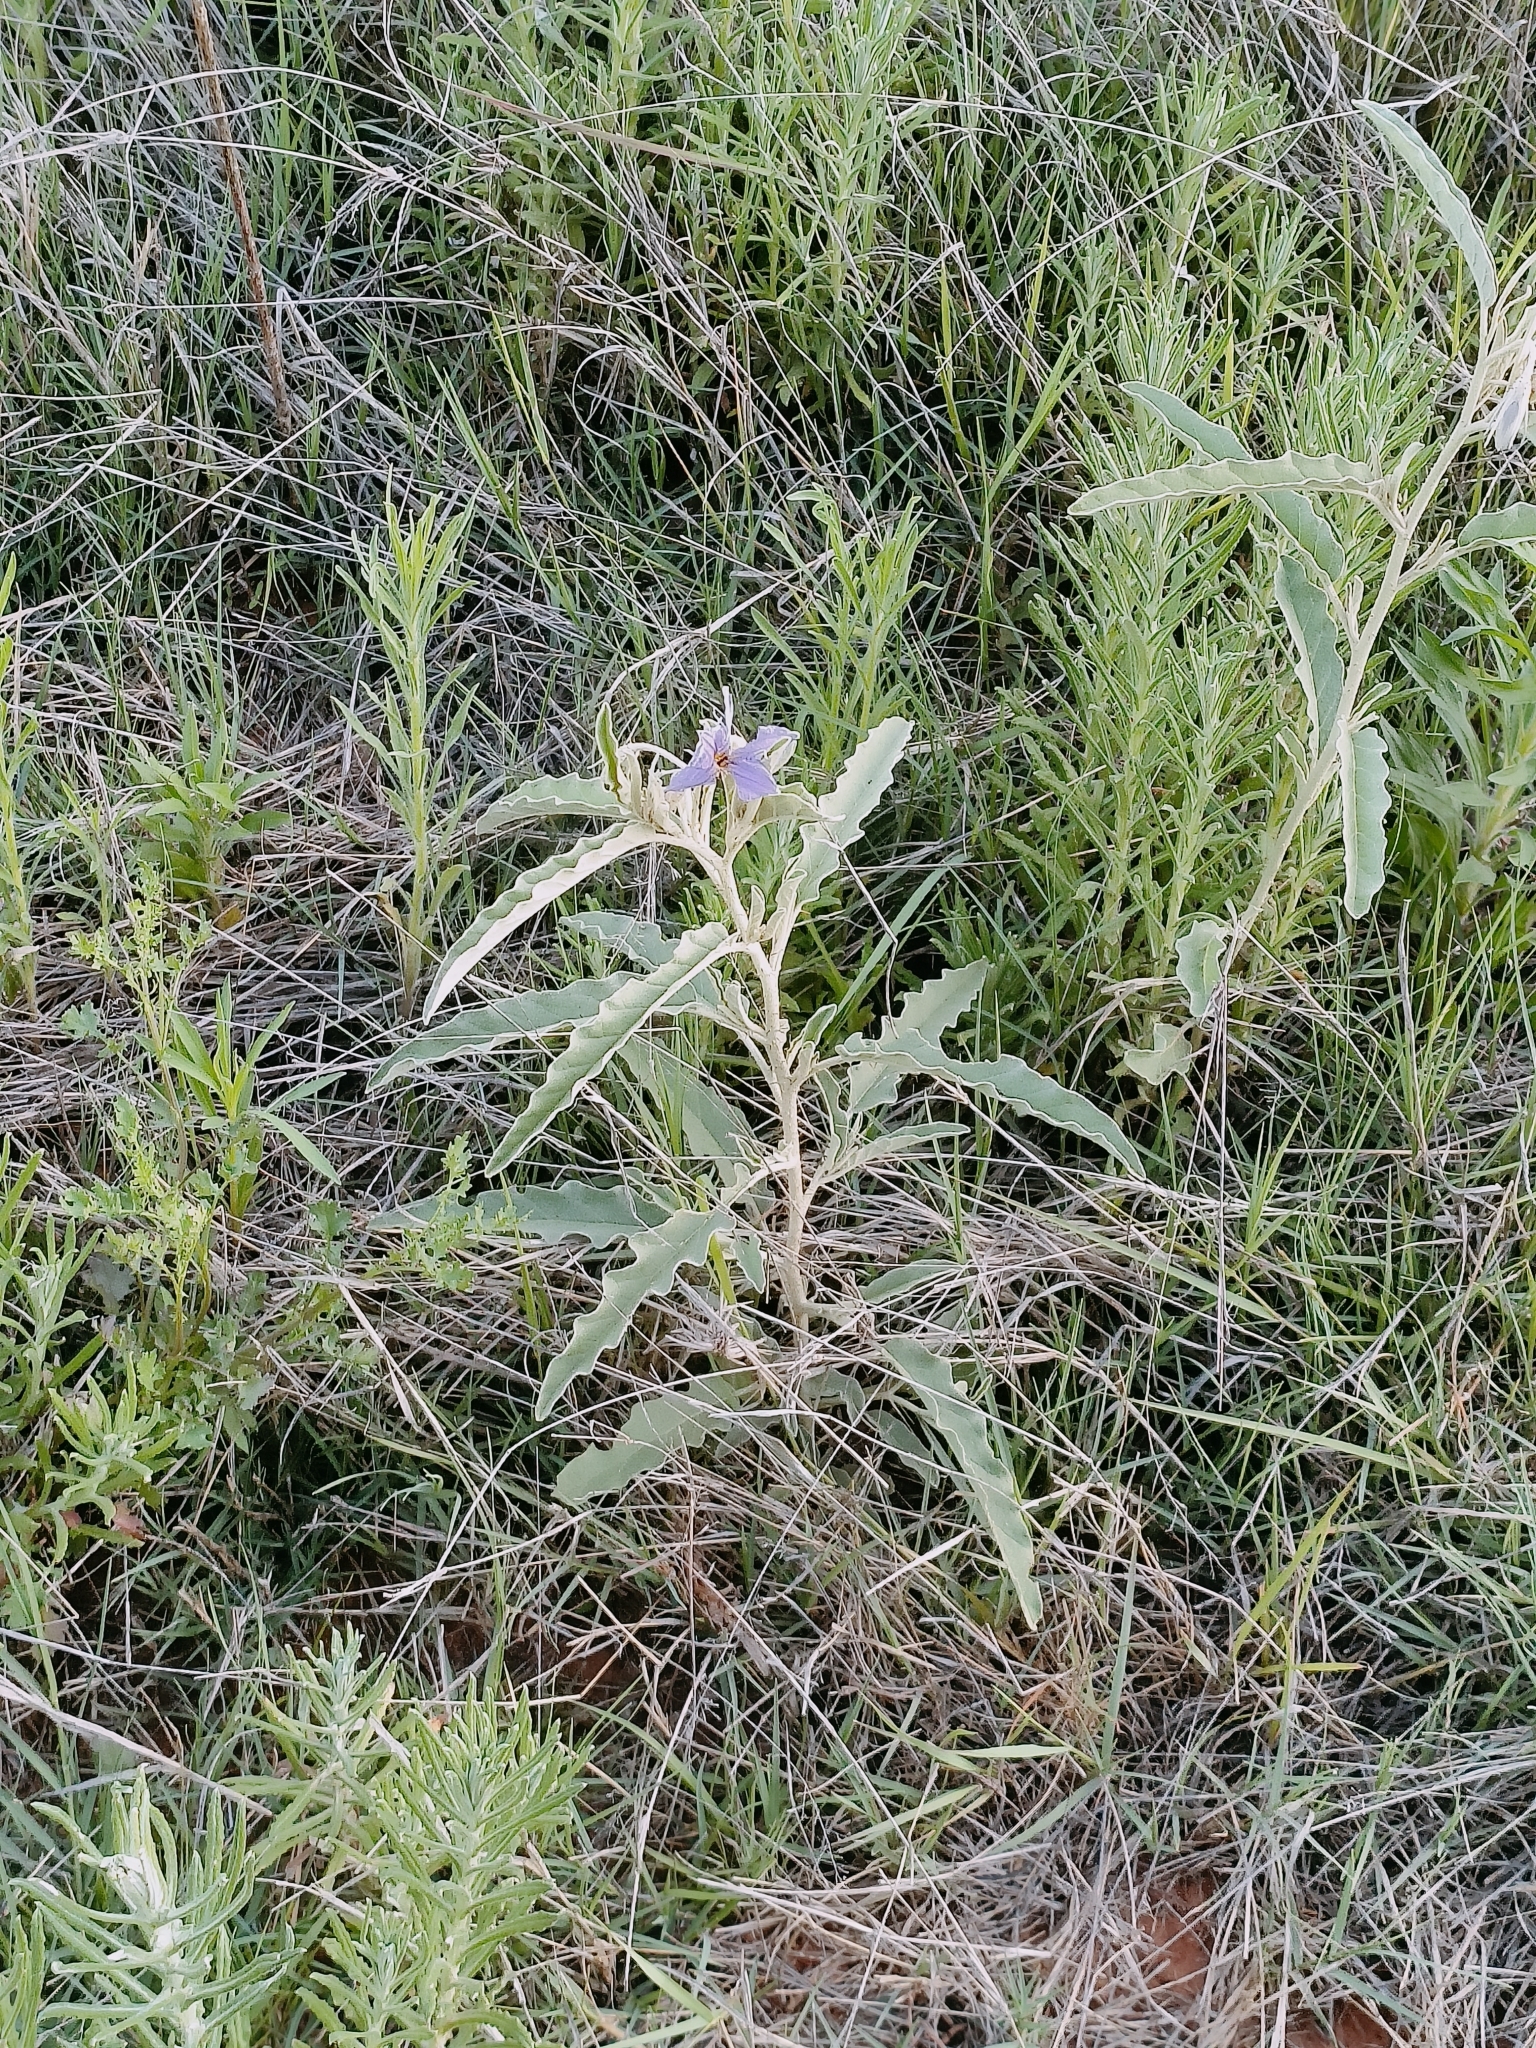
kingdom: Plantae
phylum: Tracheophyta
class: Magnoliopsida
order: Solanales
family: Solanaceae
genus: Solanum
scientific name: Solanum elaeagnifolium
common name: Silverleaf nightshade
